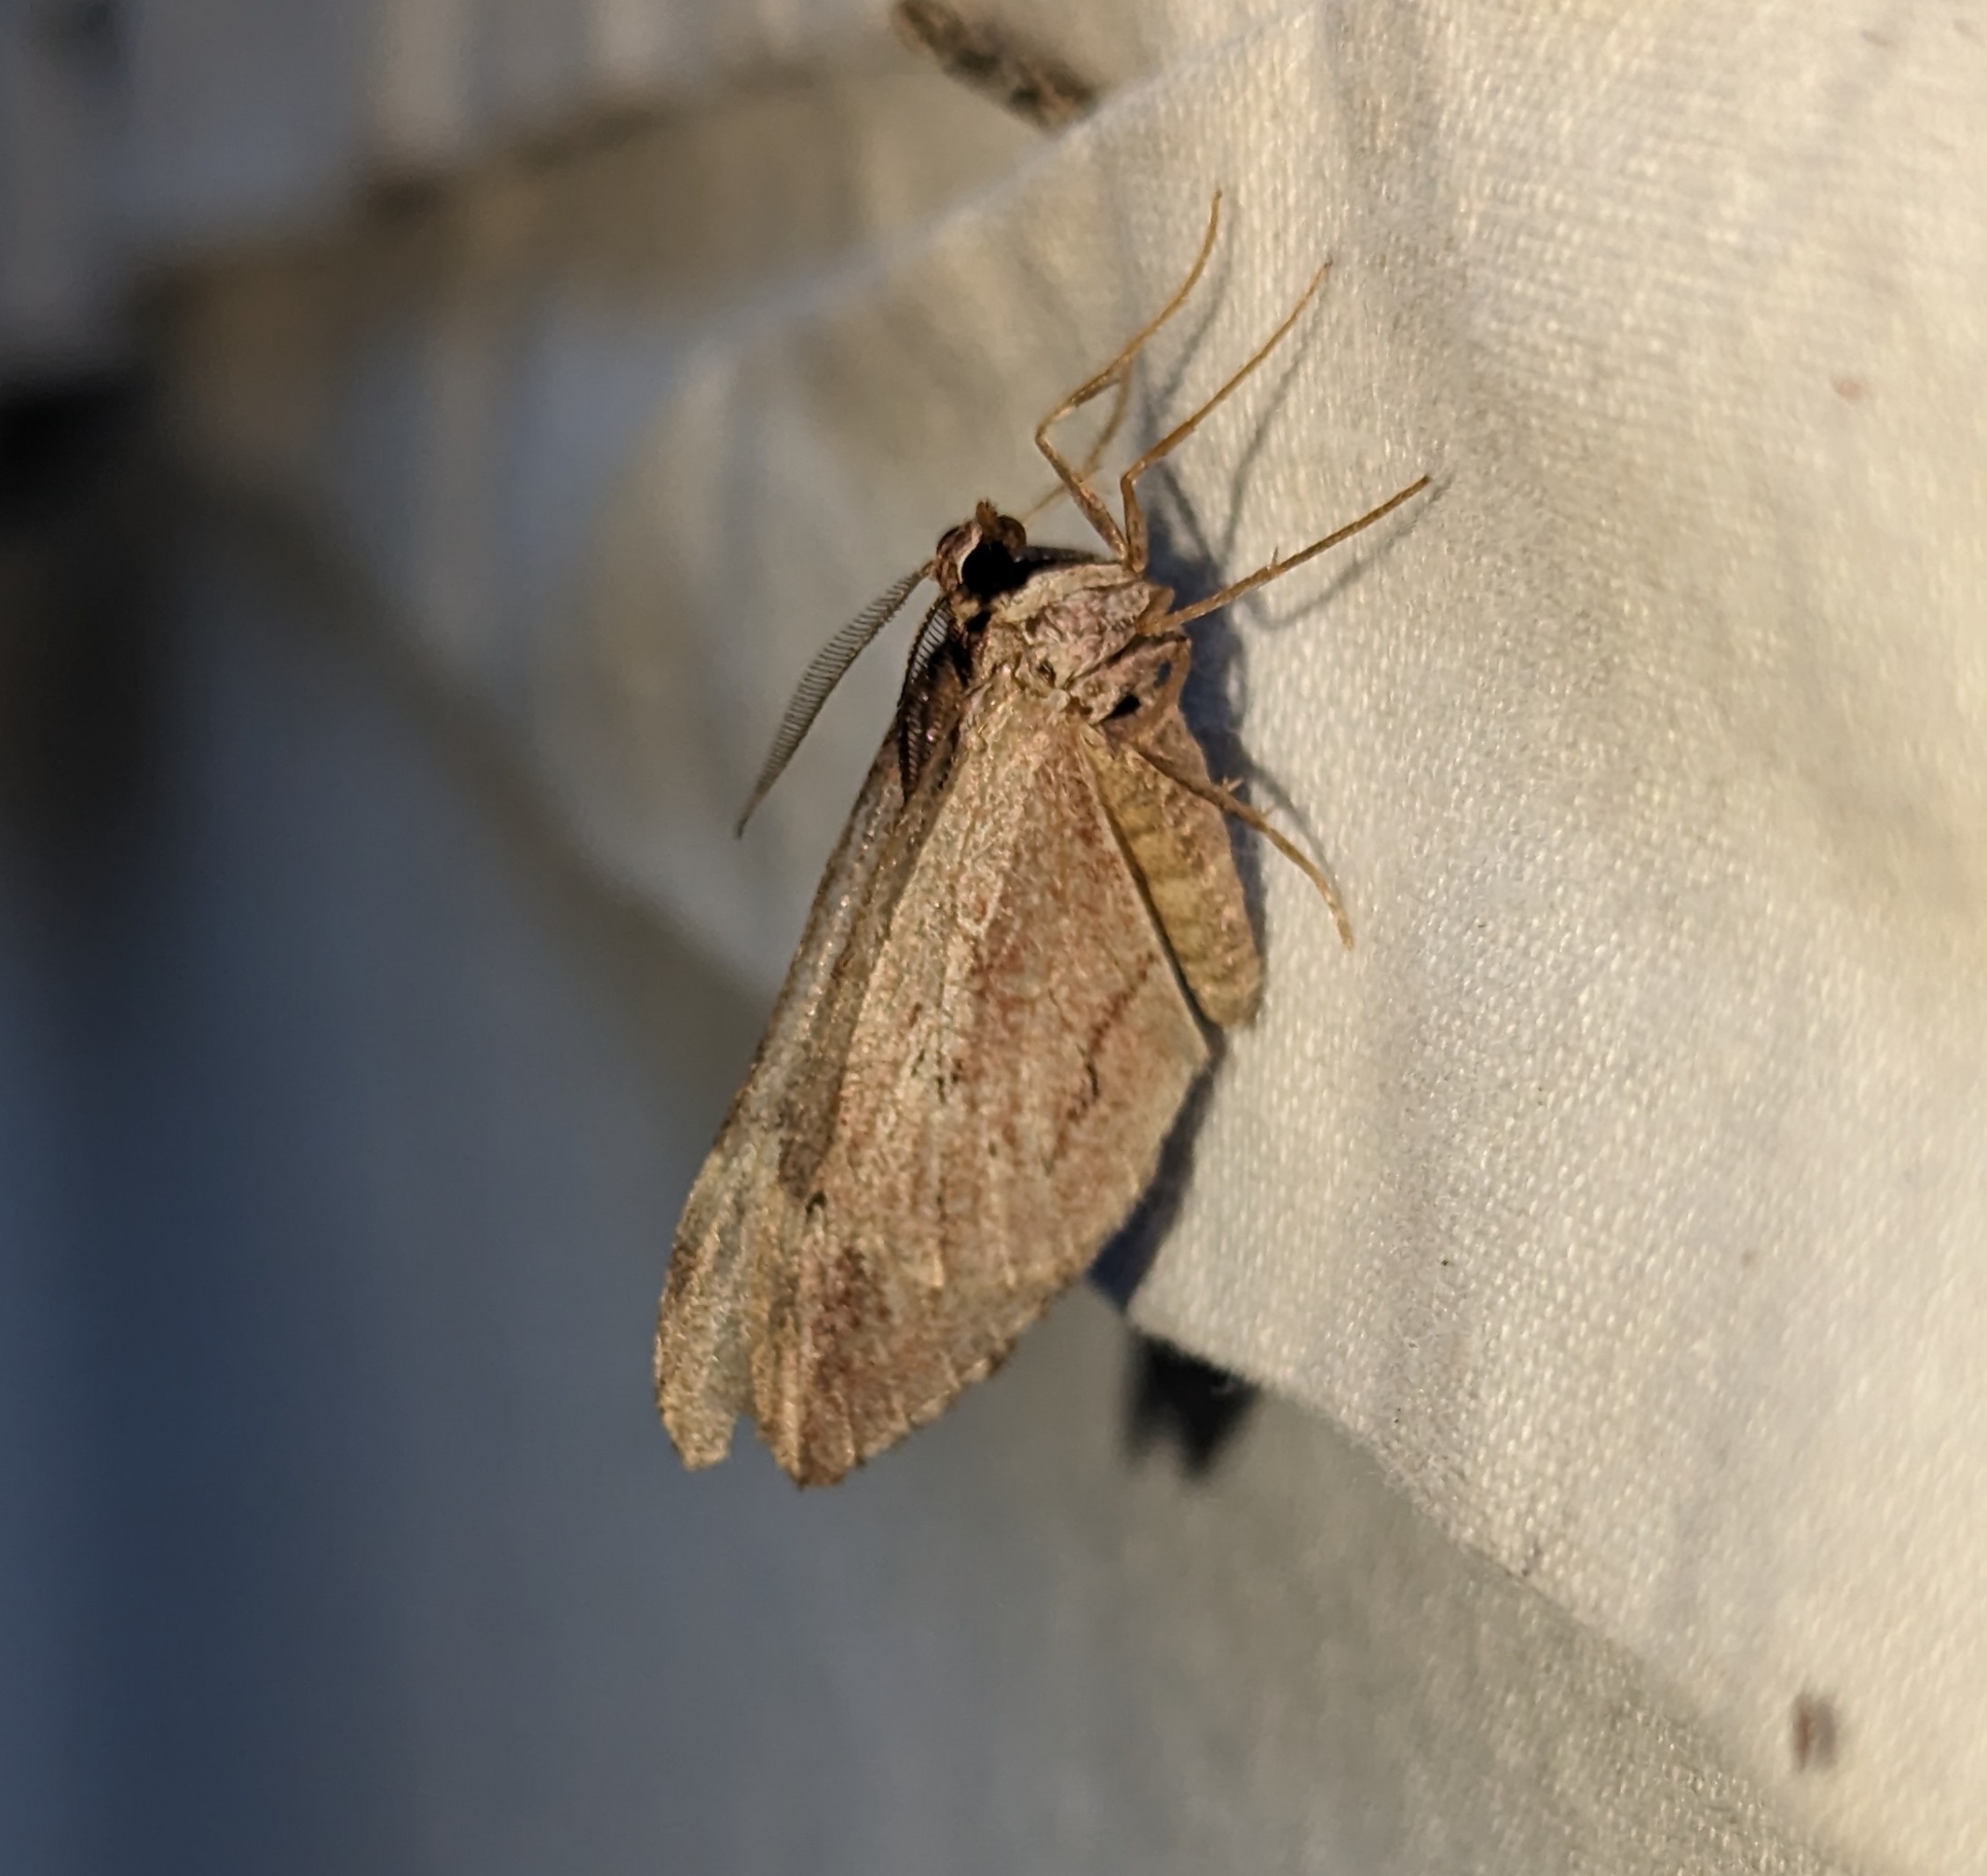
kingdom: Animalia
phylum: Arthropoda
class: Insecta
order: Lepidoptera
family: Geometridae
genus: Stamnoctenis
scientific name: Stamnoctenis pearsalli
